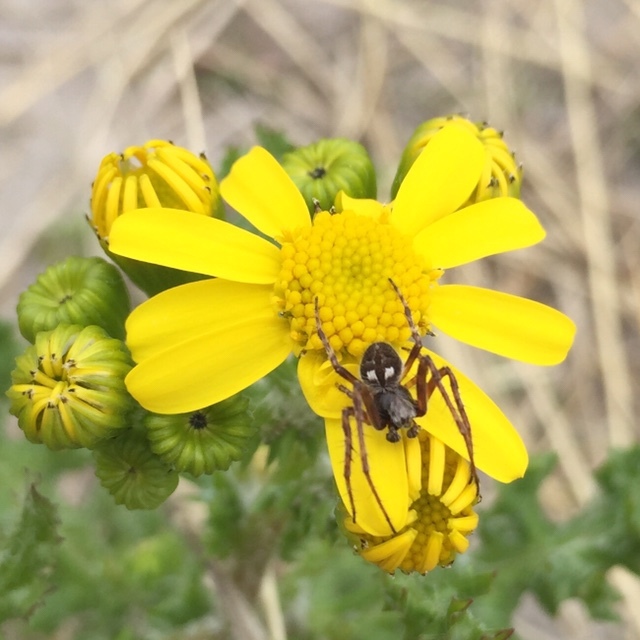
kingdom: Animalia
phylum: Arthropoda
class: Arachnida
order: Araneae
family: Araneidae
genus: Agalenatea
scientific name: Agalenatea redii
